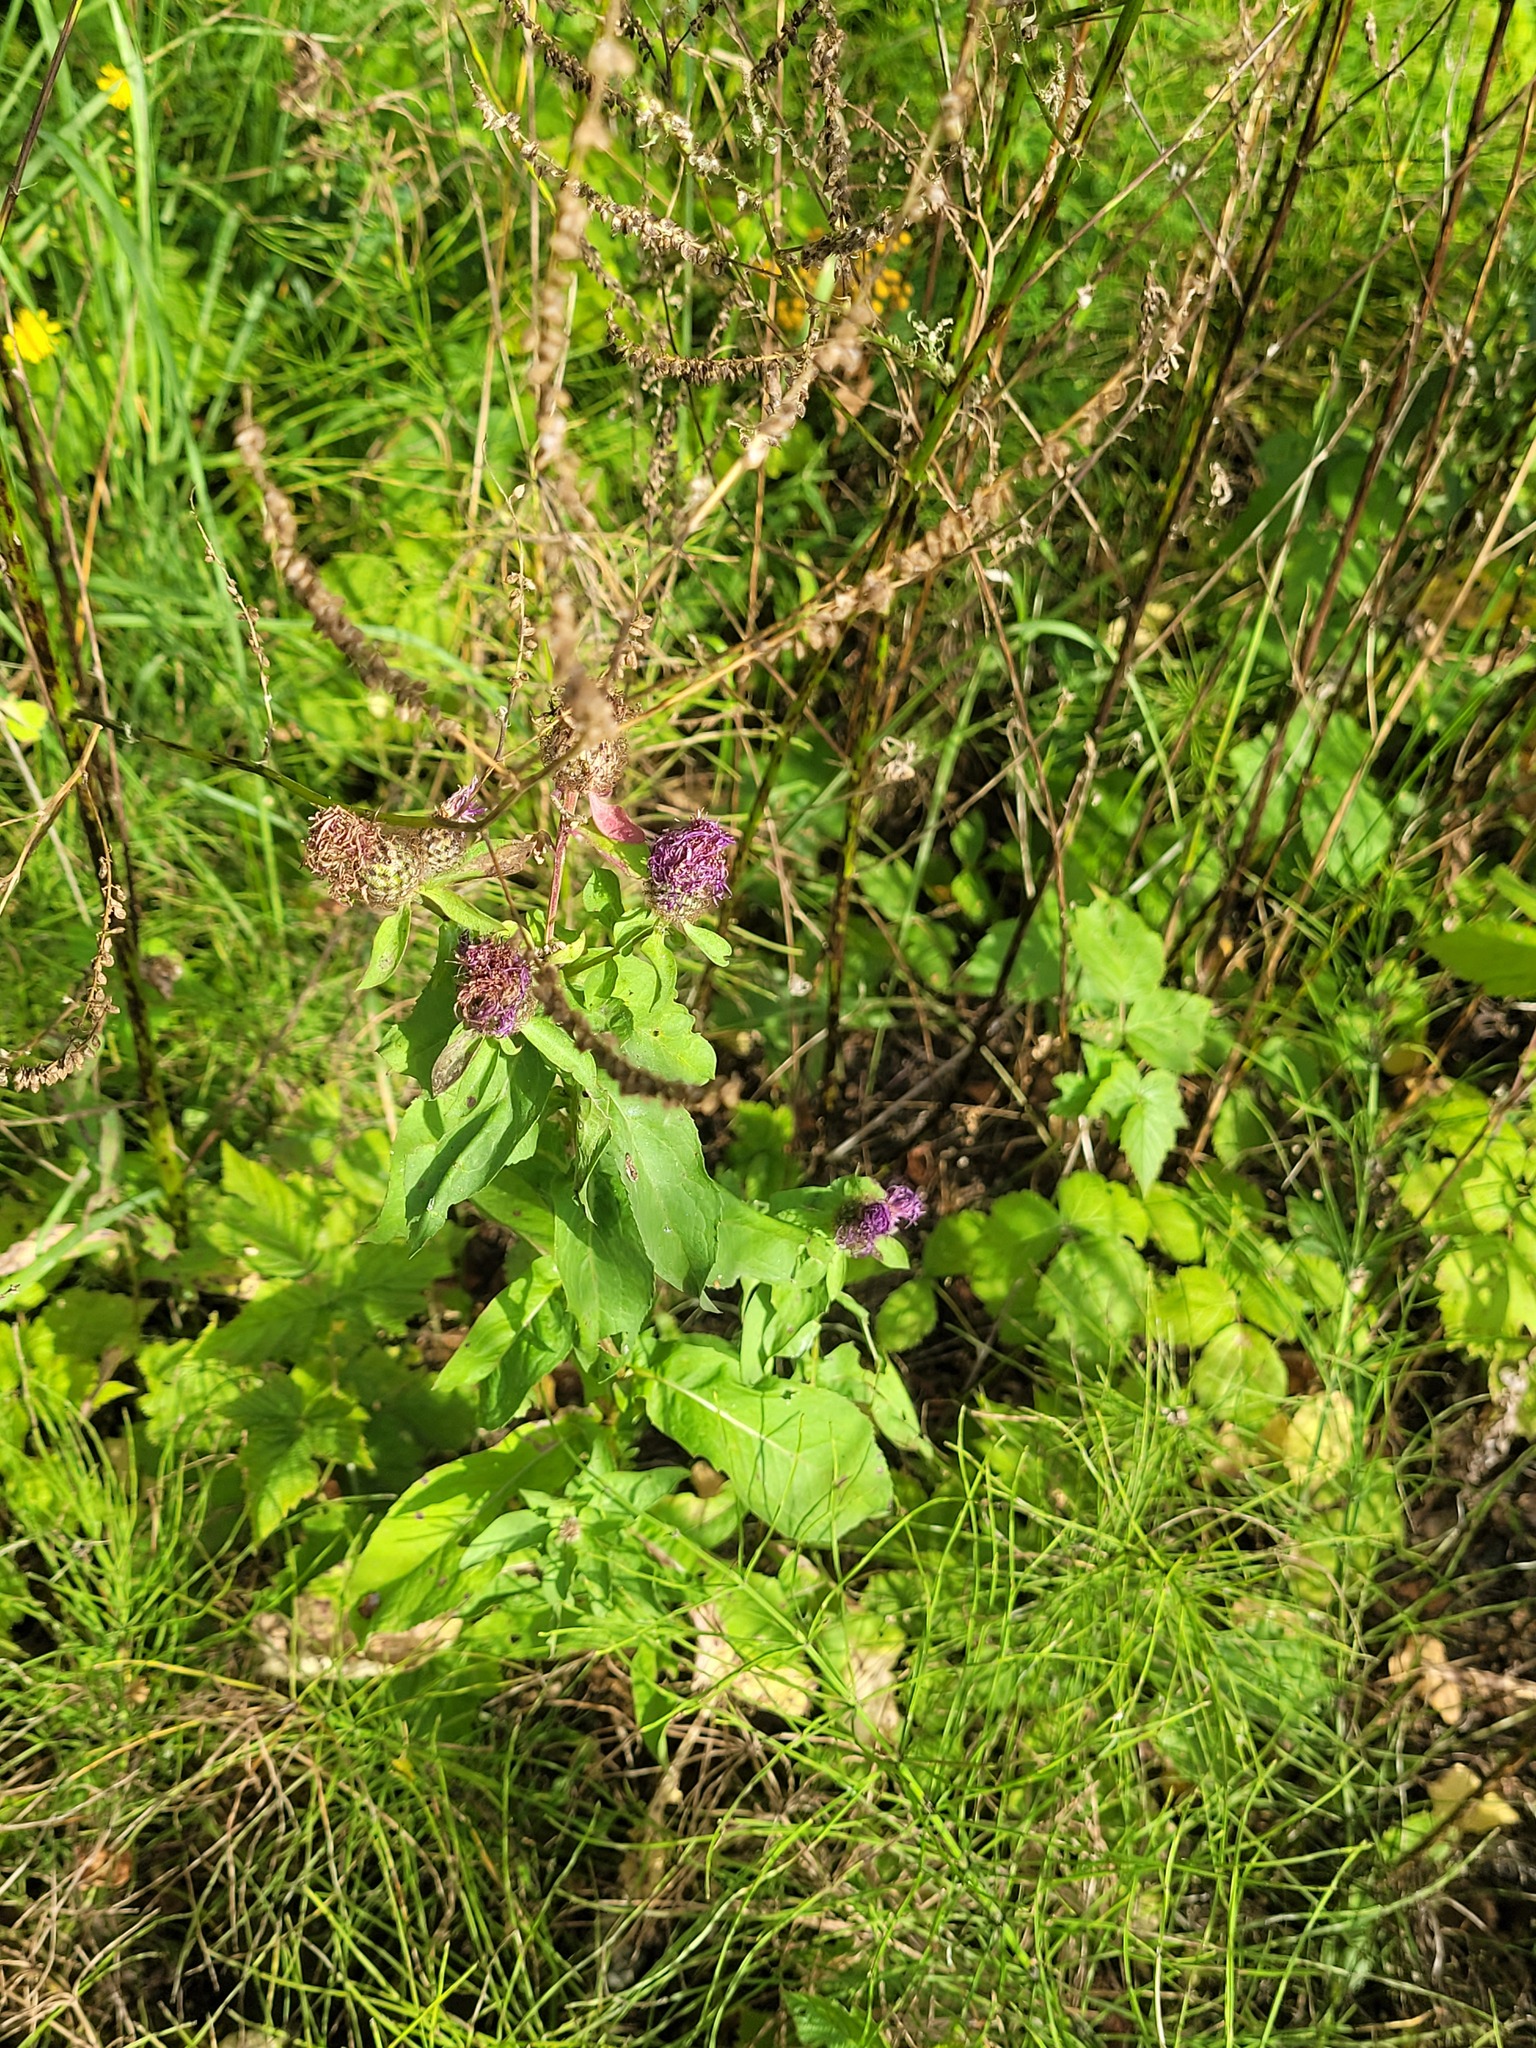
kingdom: Plantae
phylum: Tracheophyta
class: Magnoliopsida
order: Asterales
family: Asteraceae
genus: Centaurea
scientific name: Centaurea pseudophrygia
